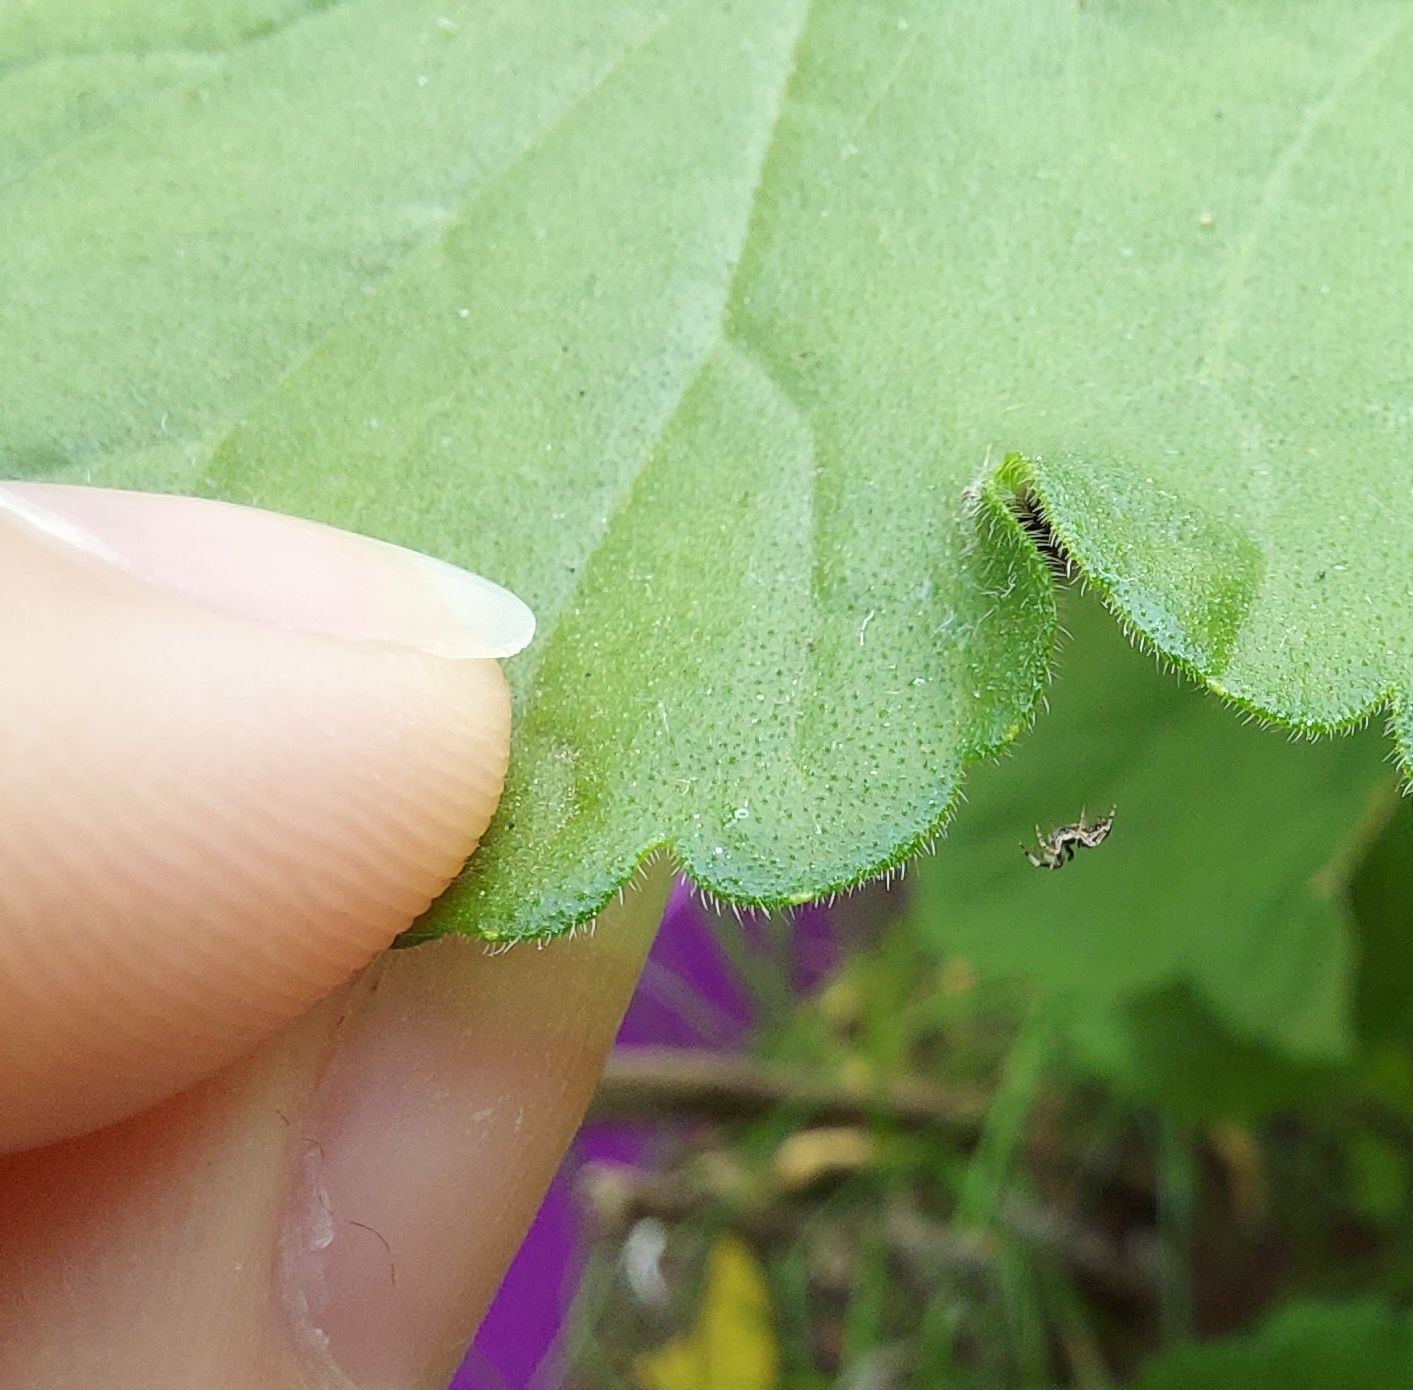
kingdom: Animalia
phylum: Arthropoda
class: Arachnida
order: Araneae
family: Uloboridae
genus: Uloborus
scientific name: Uloborus plumipes
